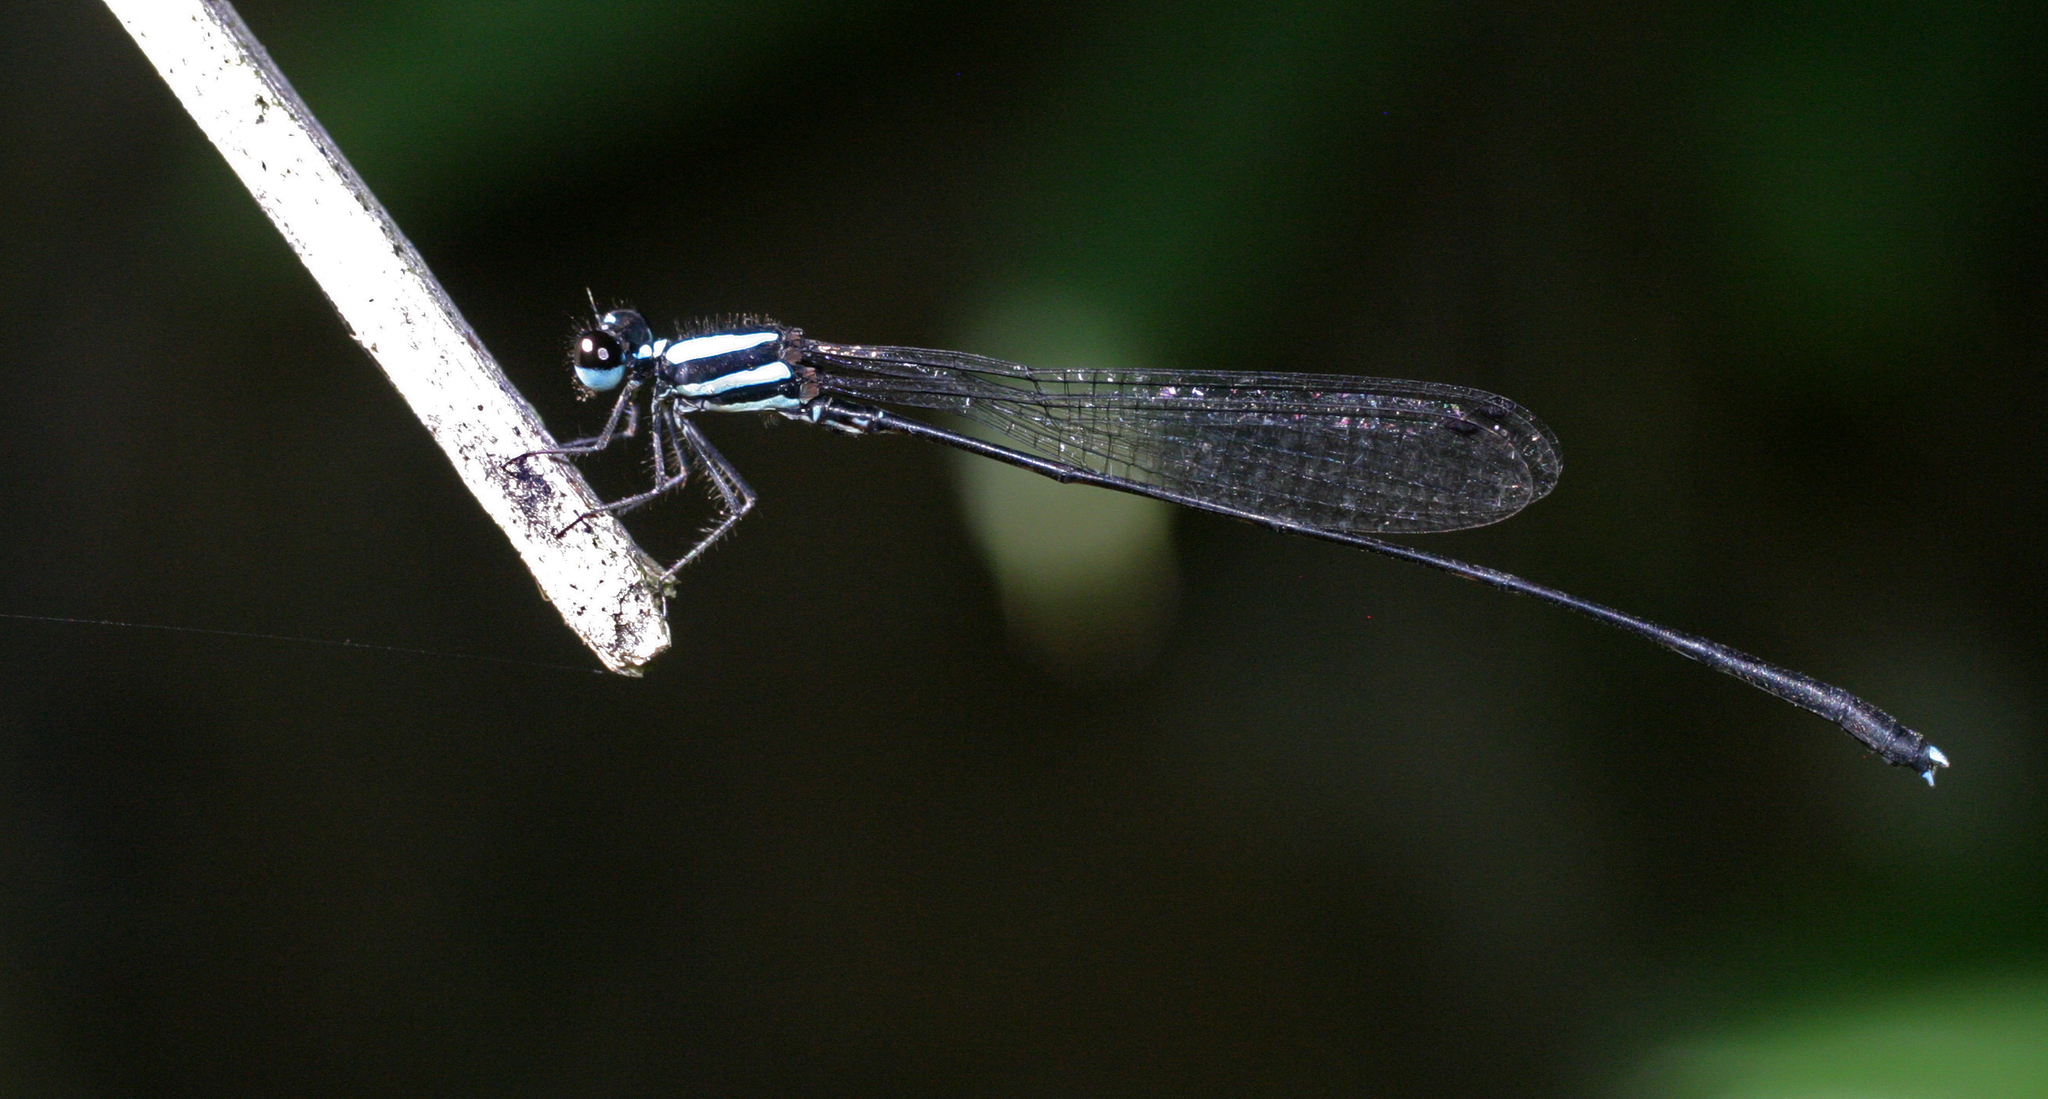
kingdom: Animalia
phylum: Arthropoda
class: Insecta
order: Odonata
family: Platycnemididae
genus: Prodasineura
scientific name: Prodasineura collaris
